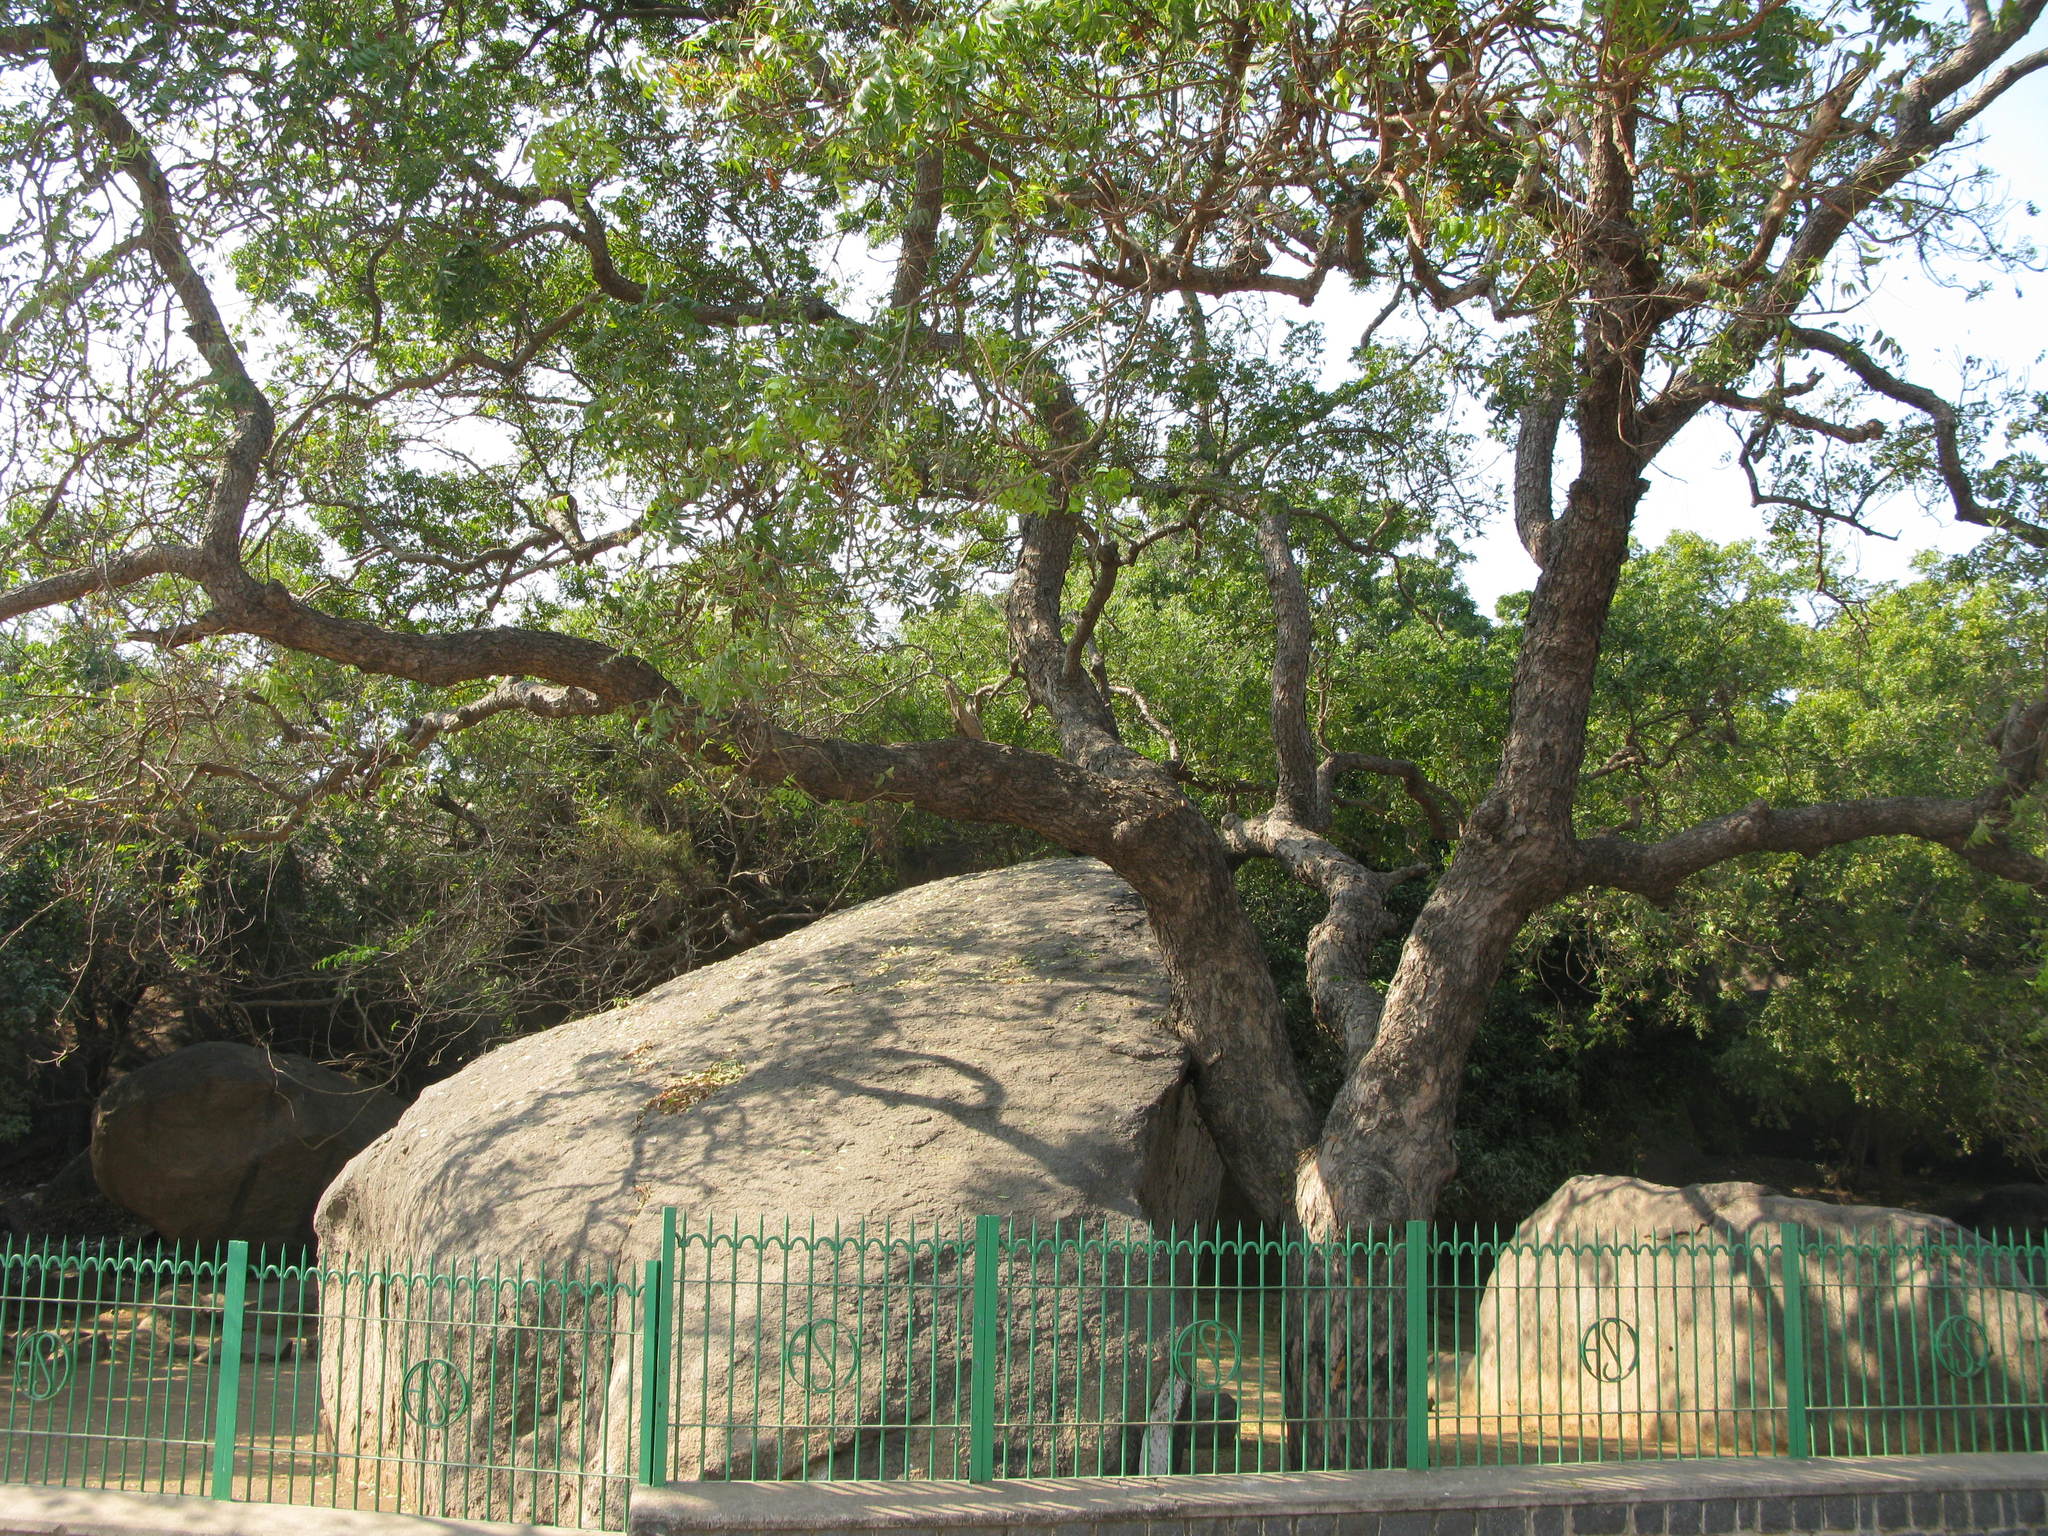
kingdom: Plantae
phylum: Tracheophyta
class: Magnoliopsida
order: Sapindales
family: Meliaceae
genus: Azadirachta
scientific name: Azadirachta indica
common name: Neem
